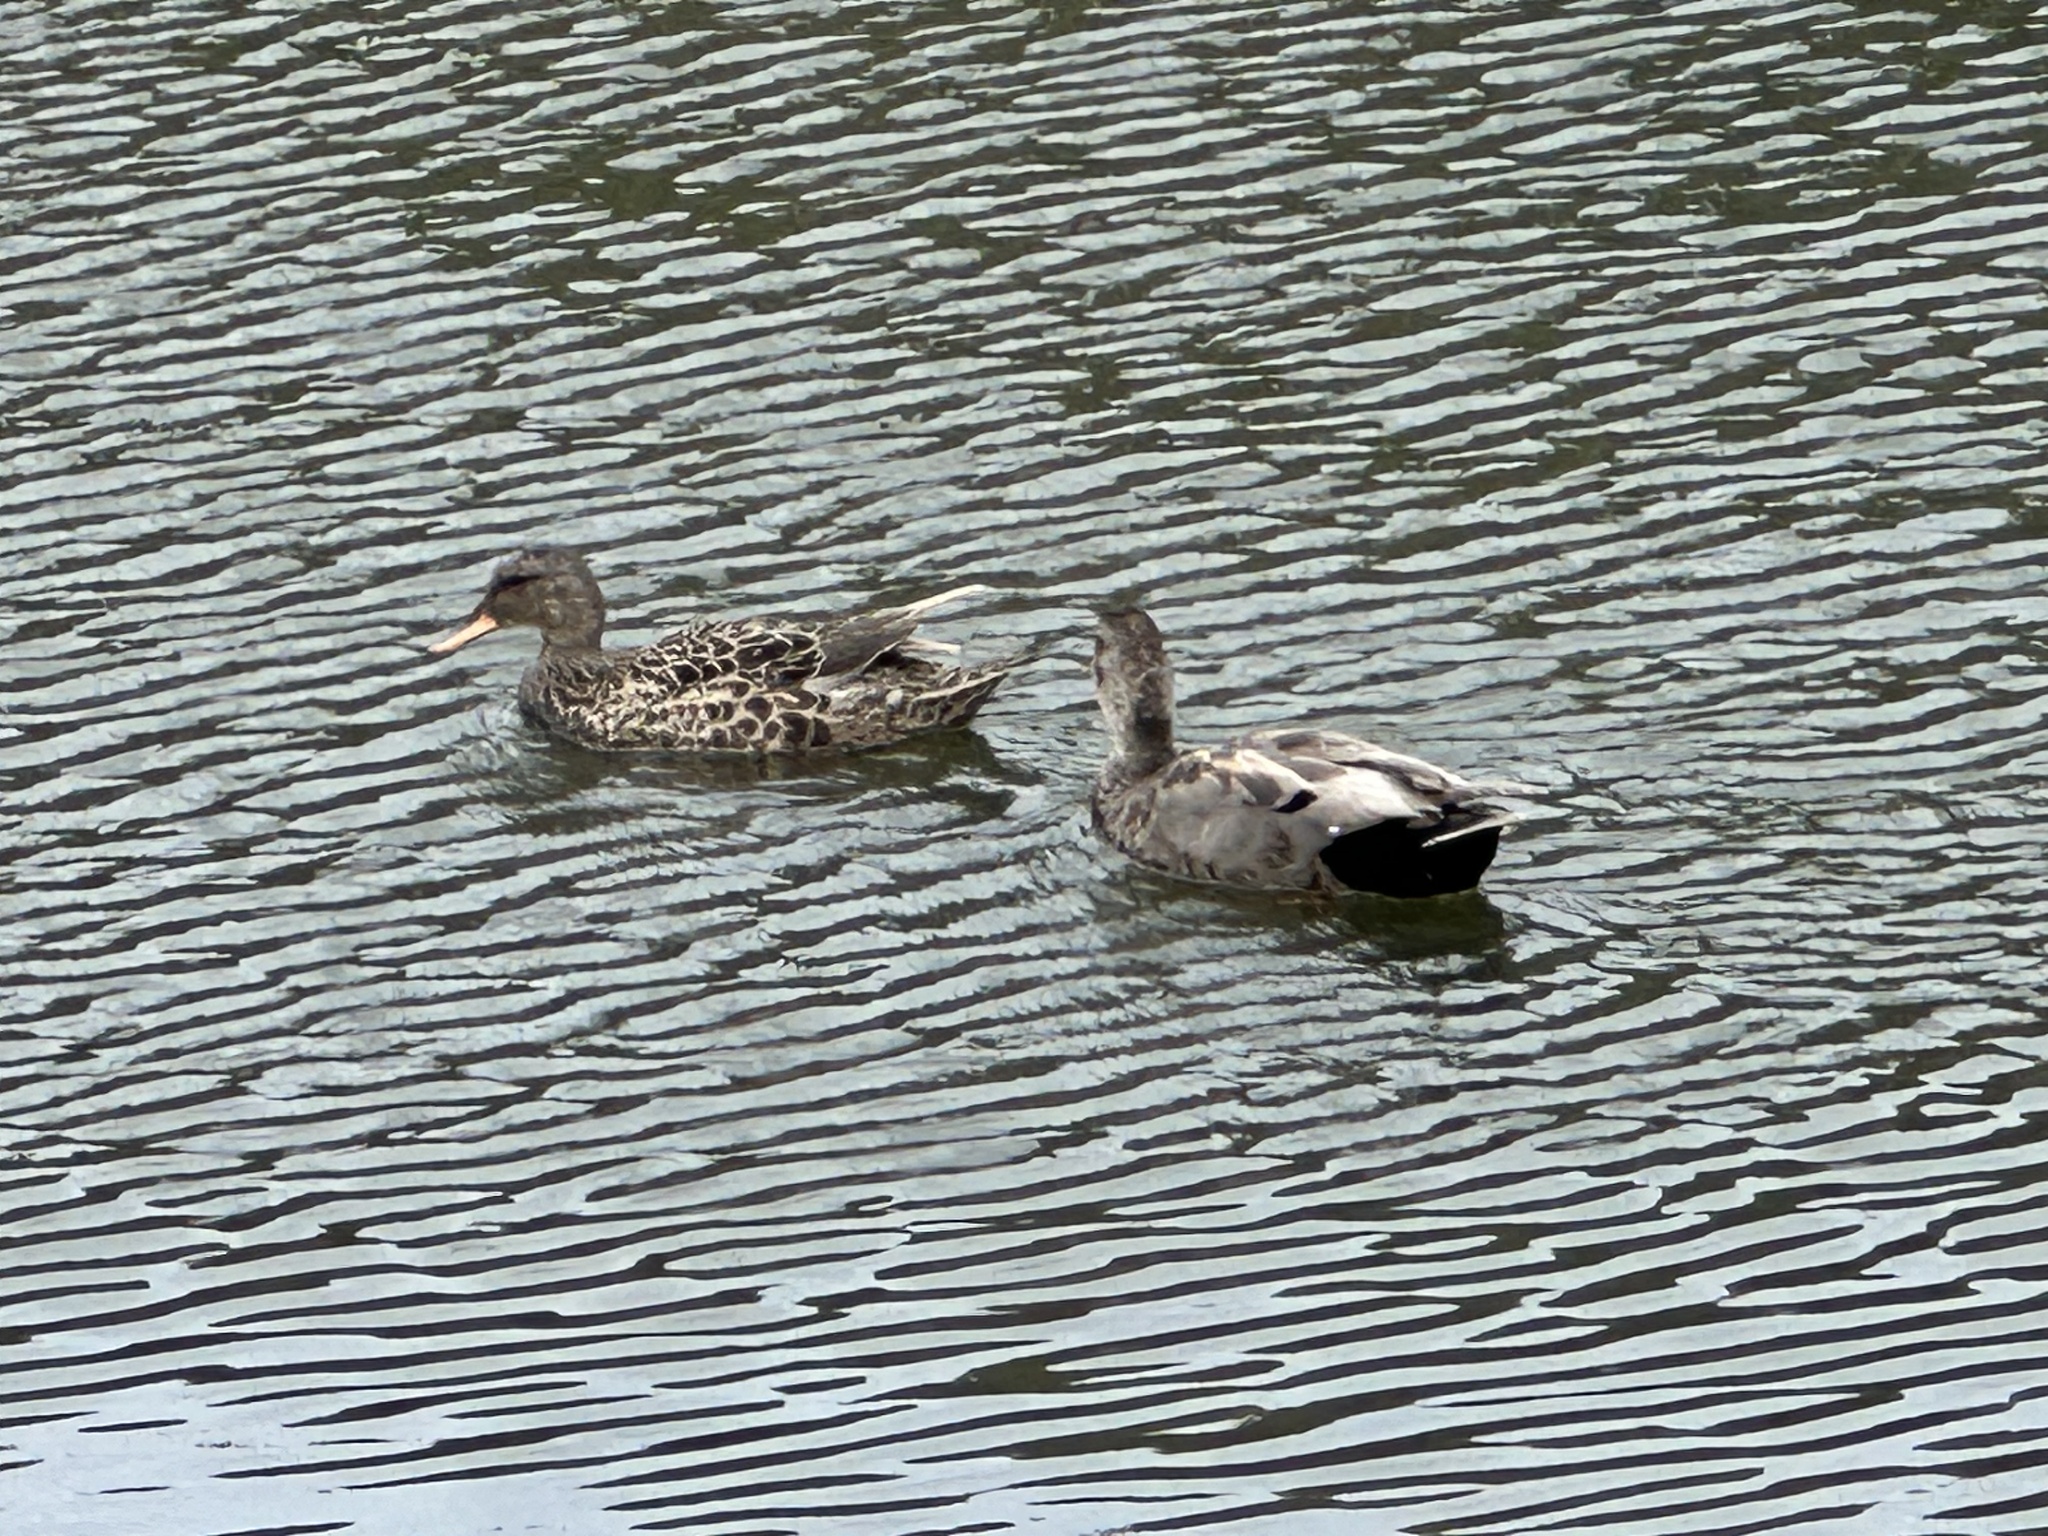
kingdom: Animalia
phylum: Chordata
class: Aves
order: Anseriformes
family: Anatidae
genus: Mareca
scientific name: Mareca strepera
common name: Gadwall
